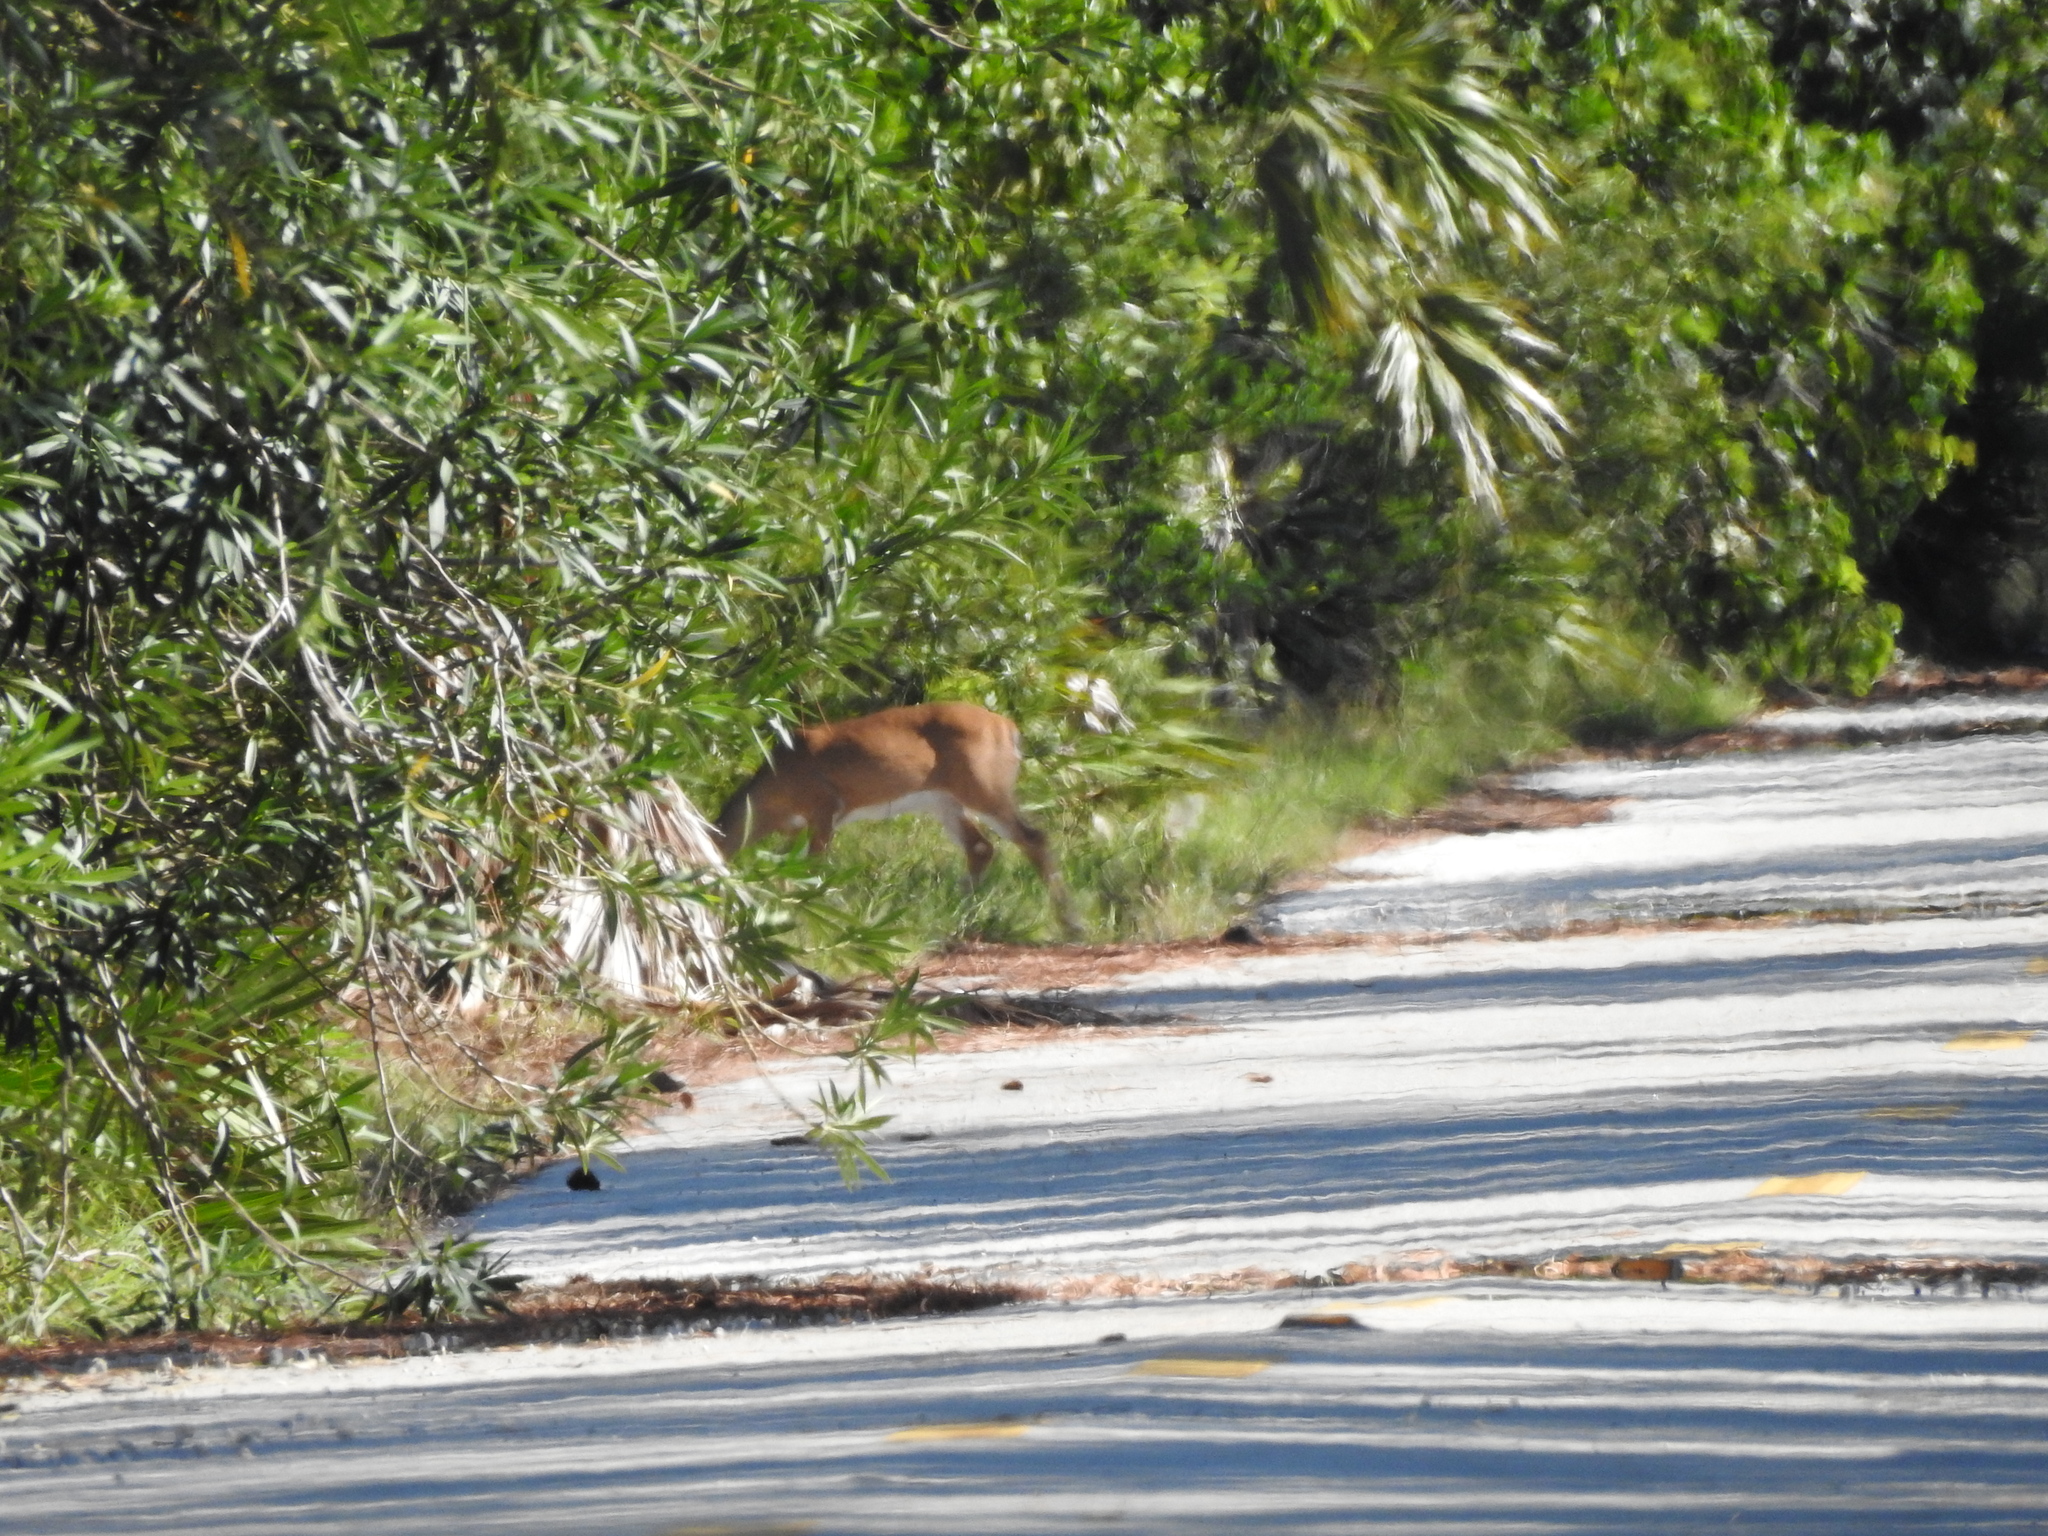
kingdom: Animalia
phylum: Chordata
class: Mammalia
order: Artiodactyla
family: Cervidae
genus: Odocoileus
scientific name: Odocoileus virginianus
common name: White-tailed deer
